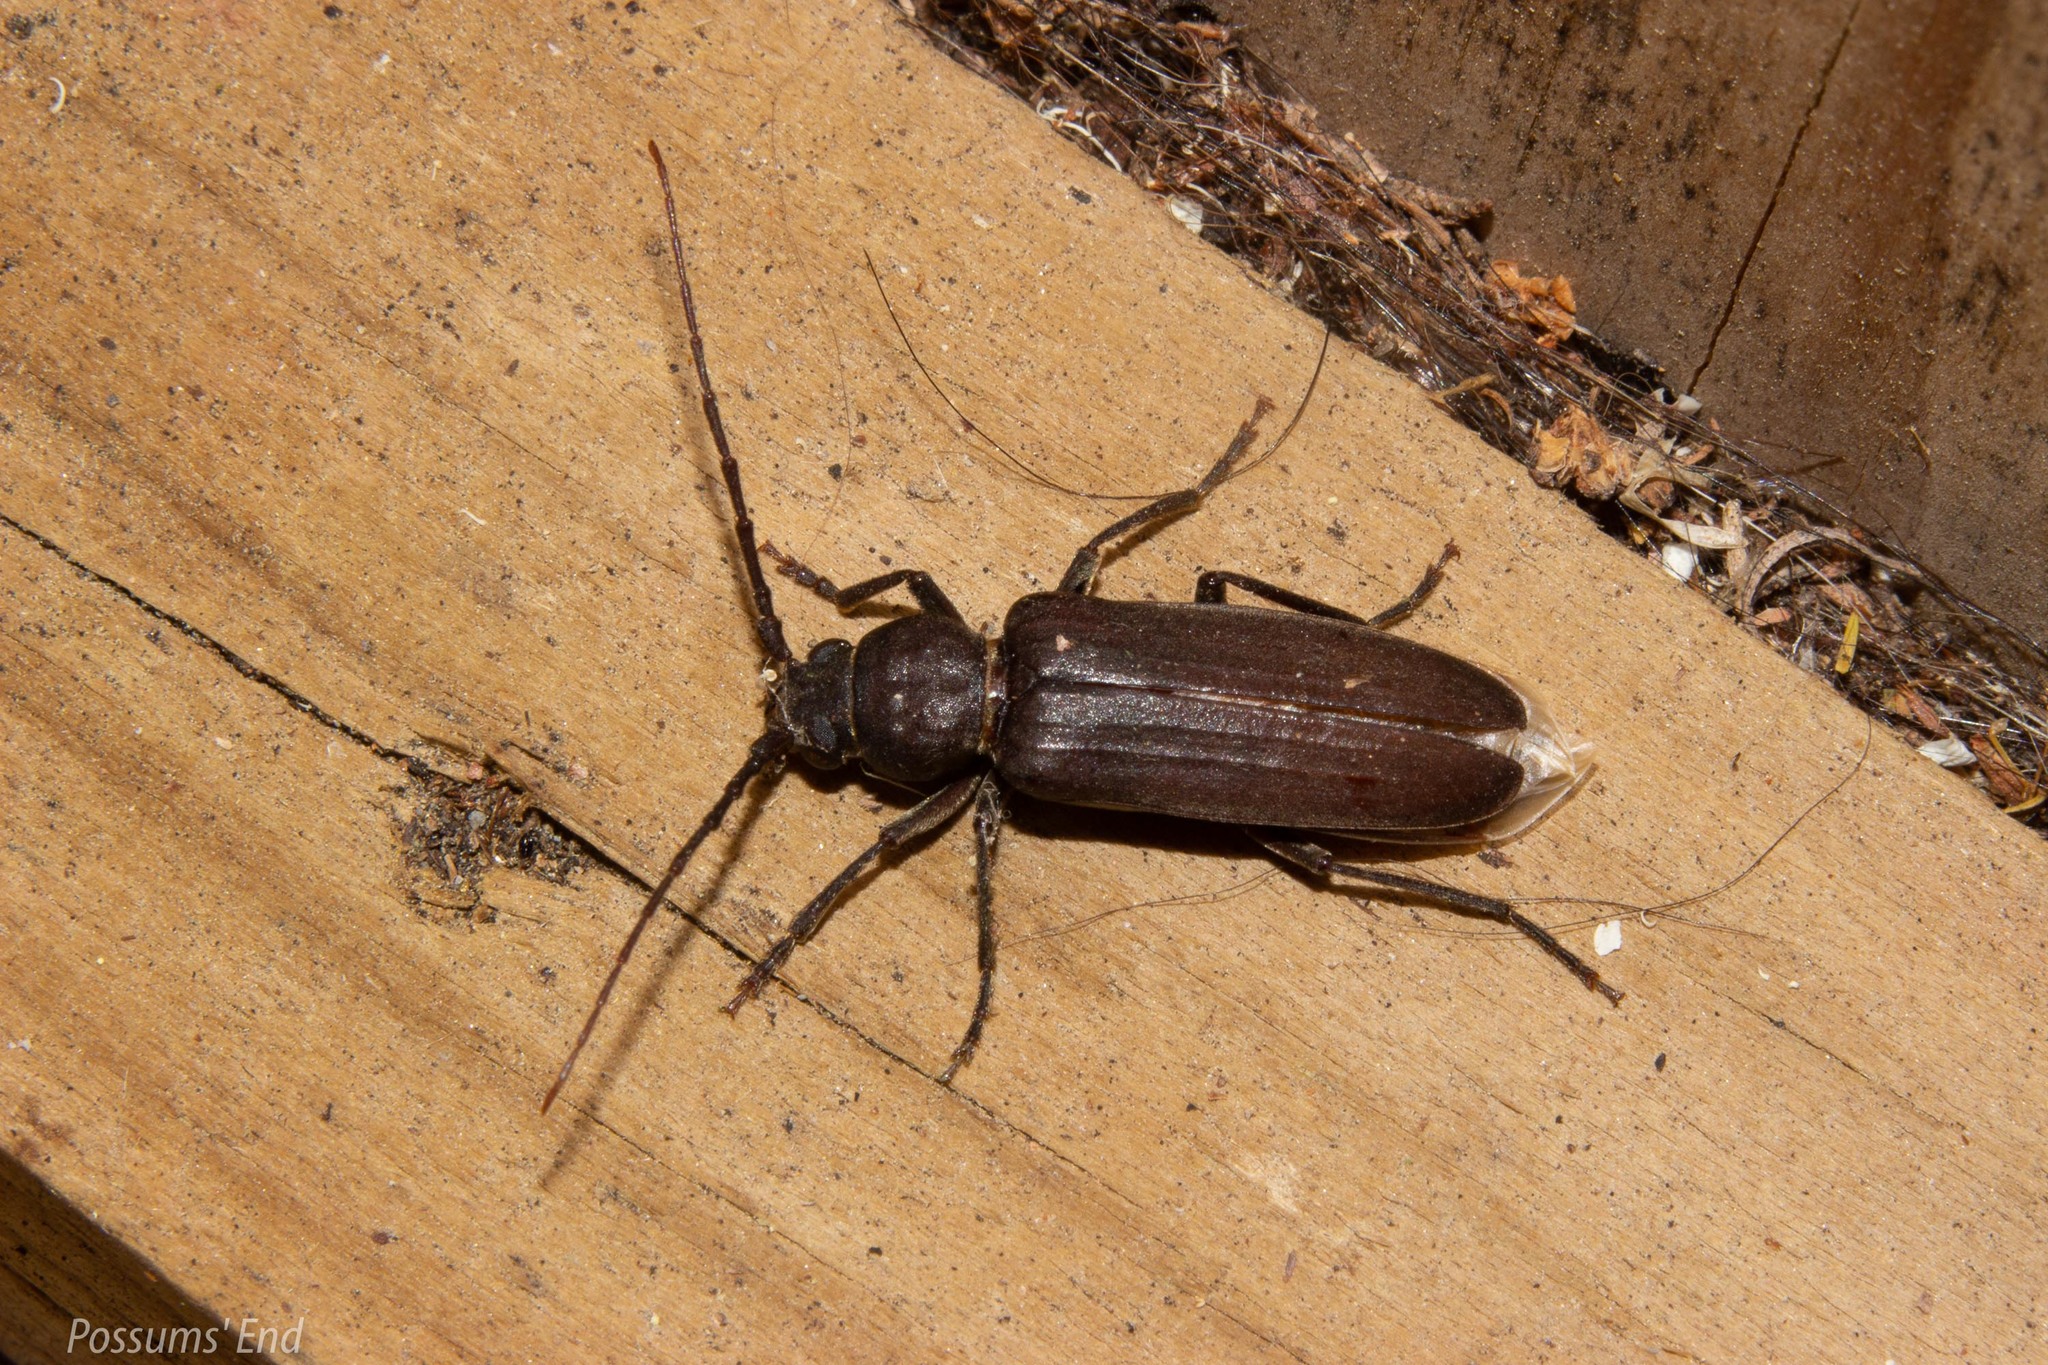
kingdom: Animalia
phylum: Arthropoda
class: Insecta
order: Coleoptera
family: Cerambycidae
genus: Arhopalus
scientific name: Arhopalus ferus
